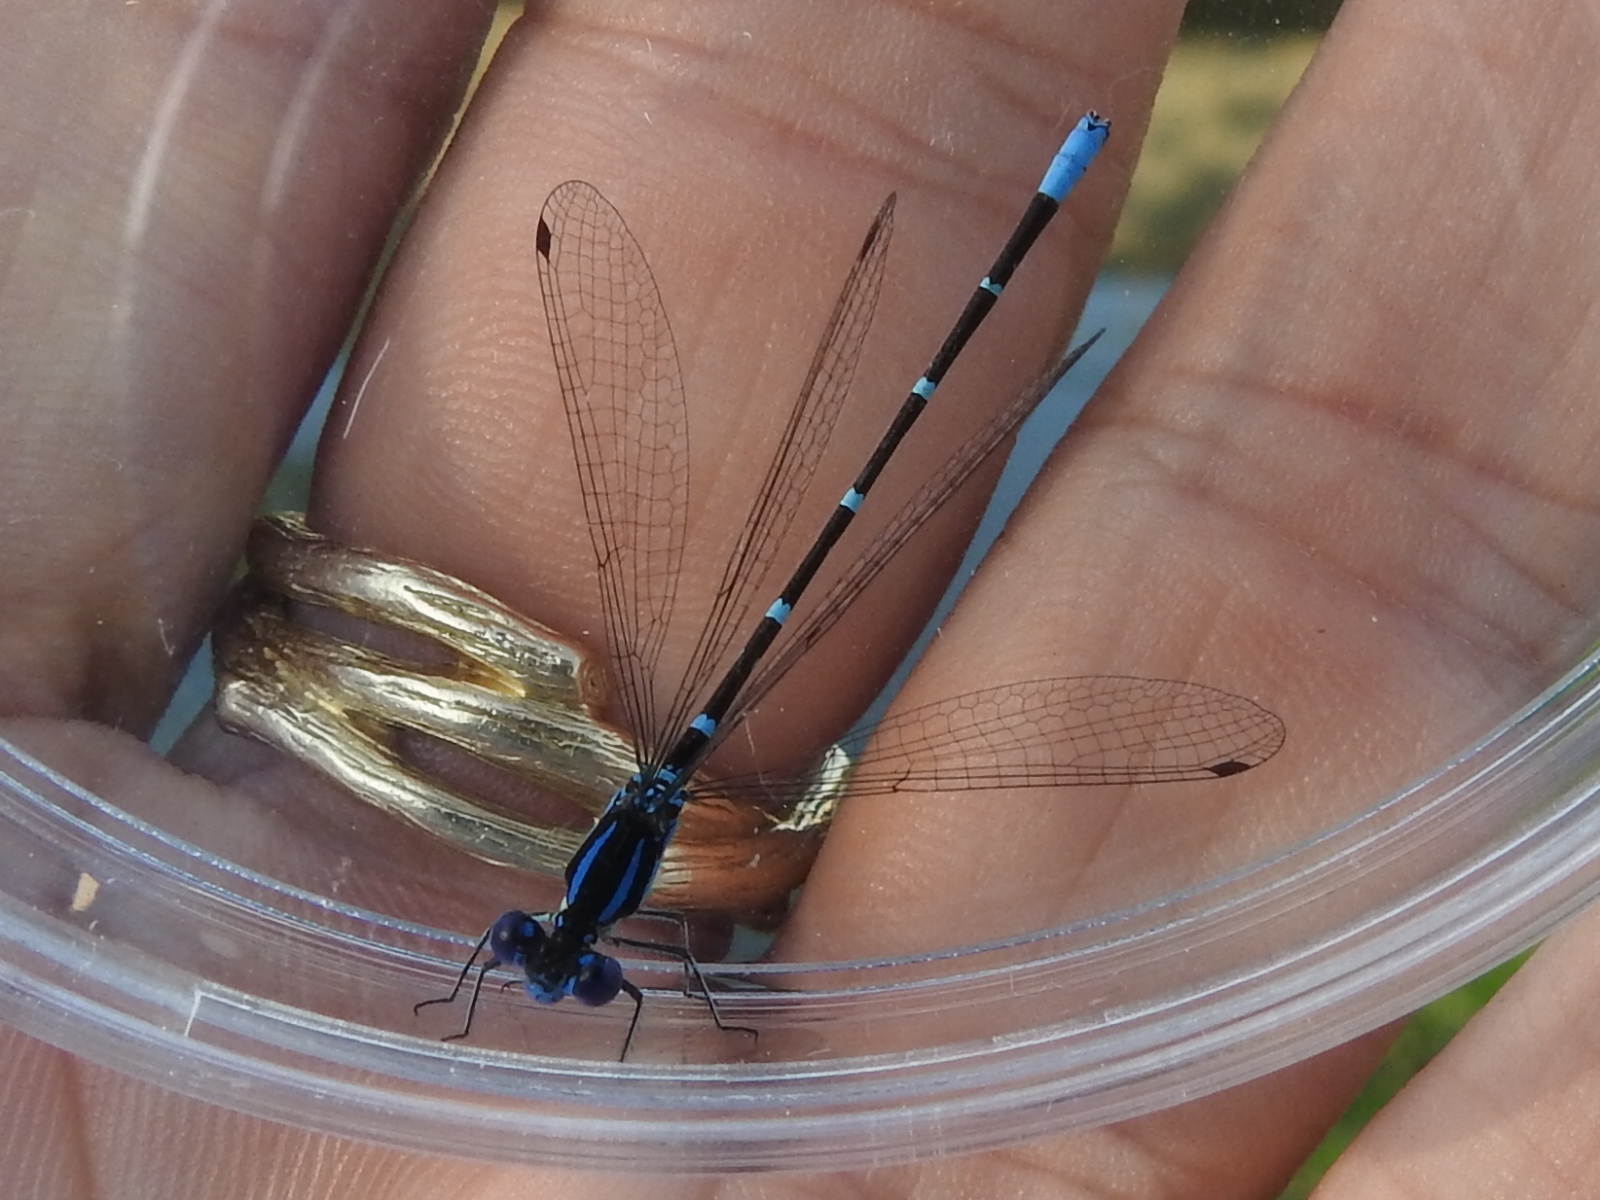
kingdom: Animalia
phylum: Arthropoda
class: Insecta
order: Odonata
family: Coenagrionidae
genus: Argia
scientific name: Argia sedula
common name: Blue-ringed dancer
